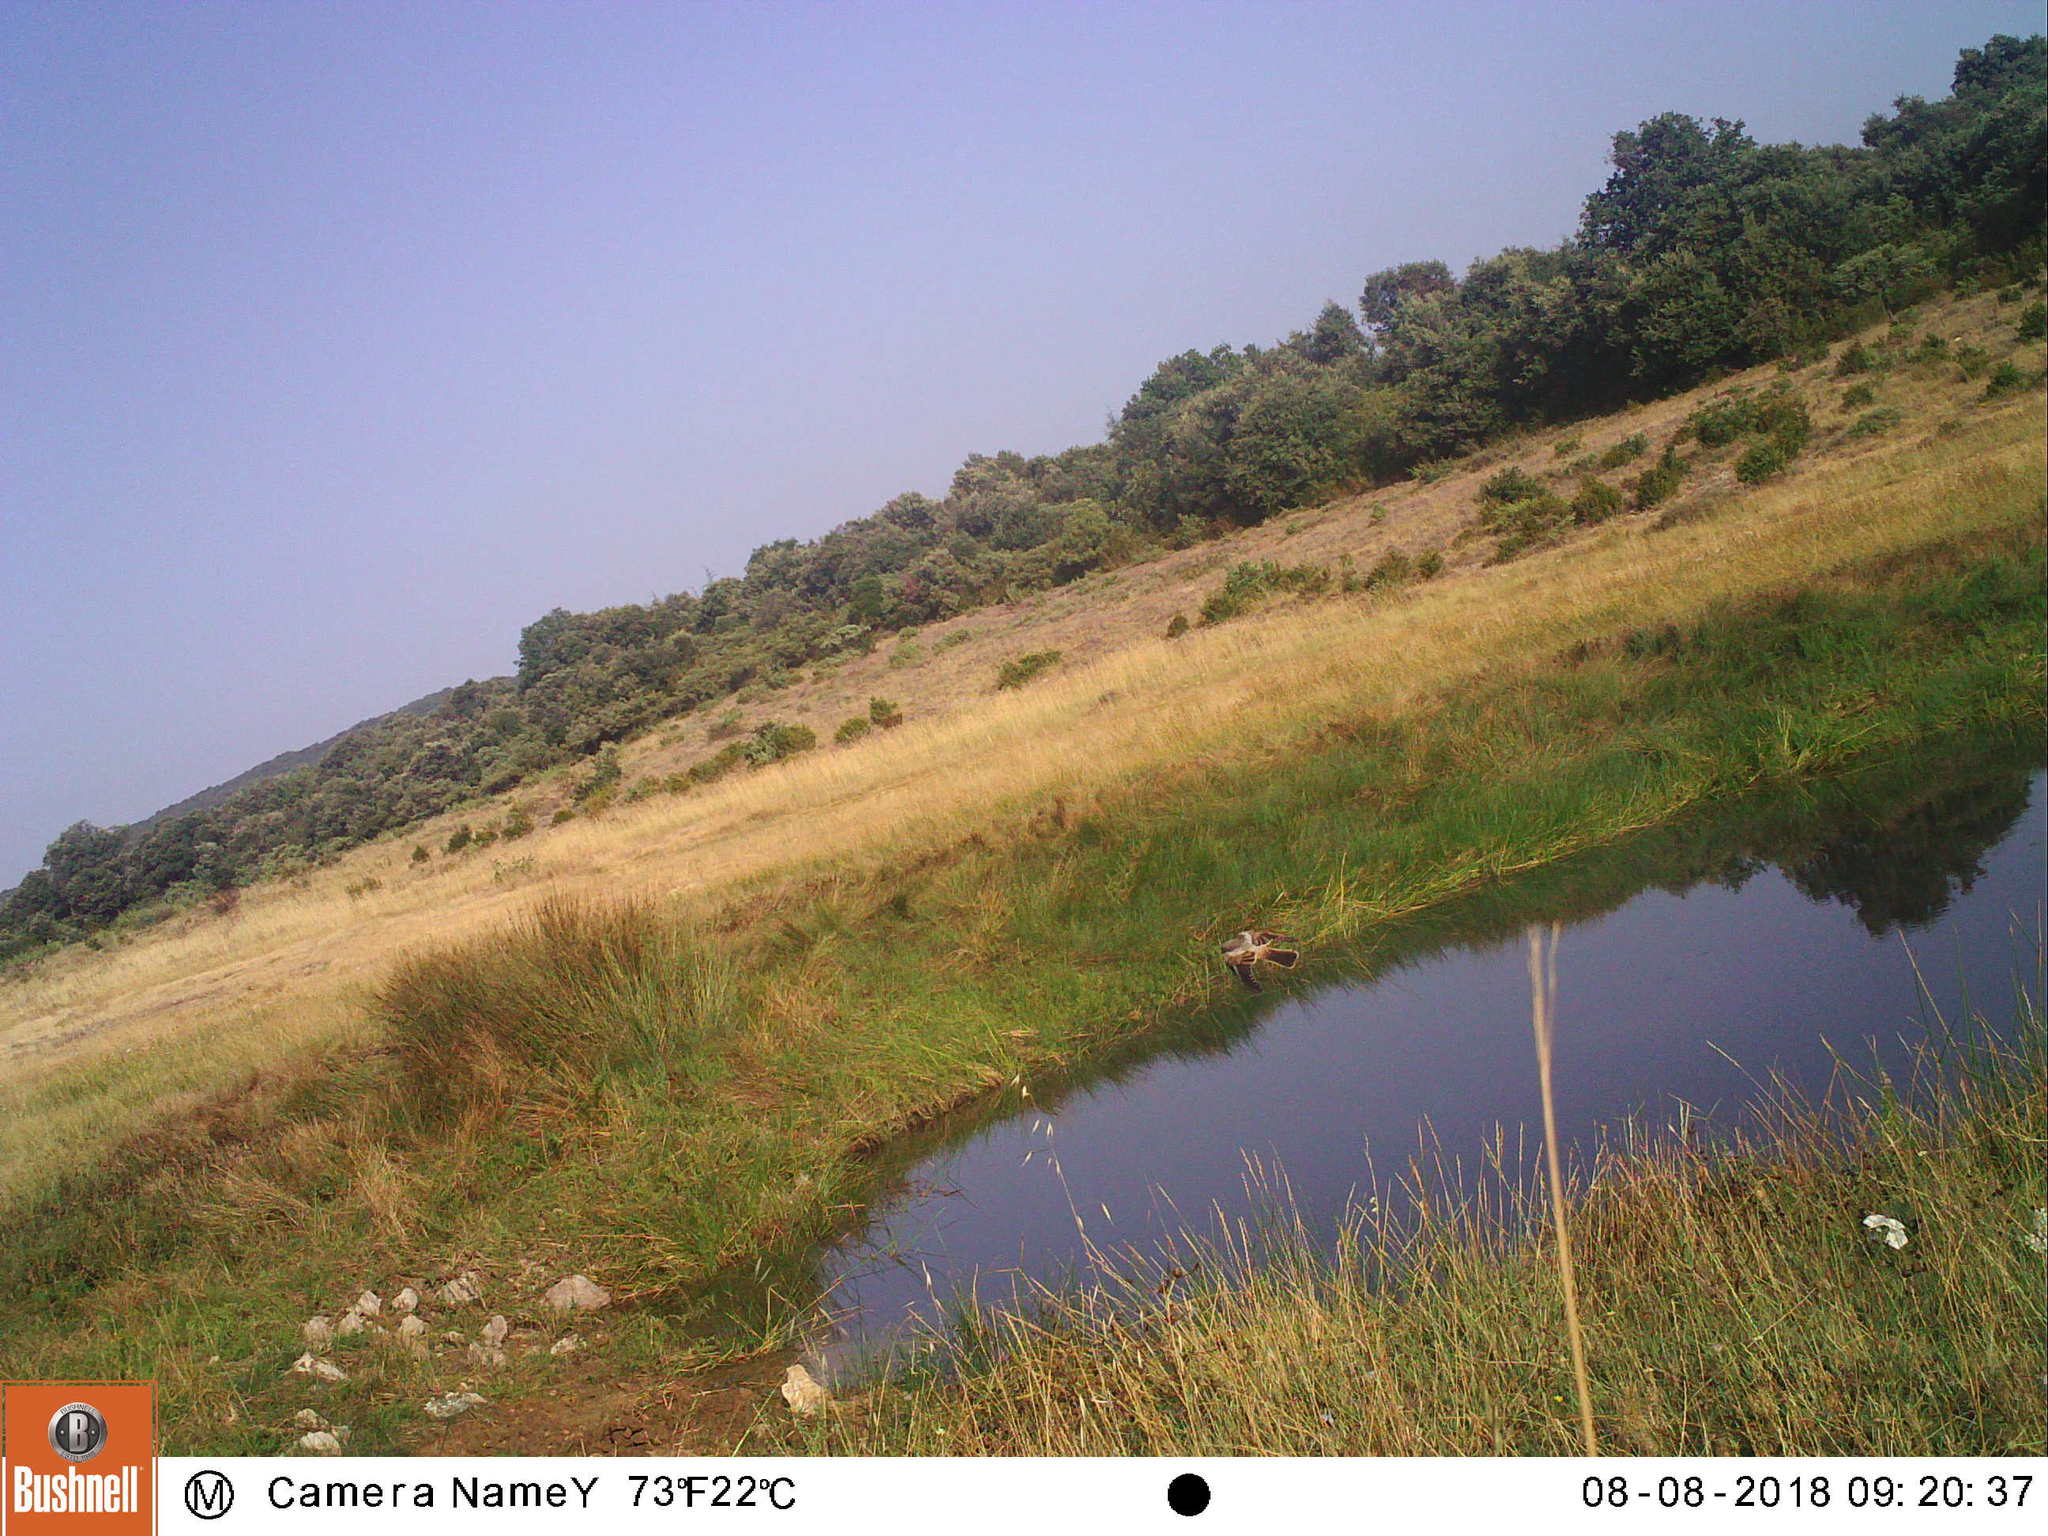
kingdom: Animalia
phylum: Chordata
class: Aves
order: Passeriformes
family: Laniidae
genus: Lanius
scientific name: Lanius senator
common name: Woodchat shrike
